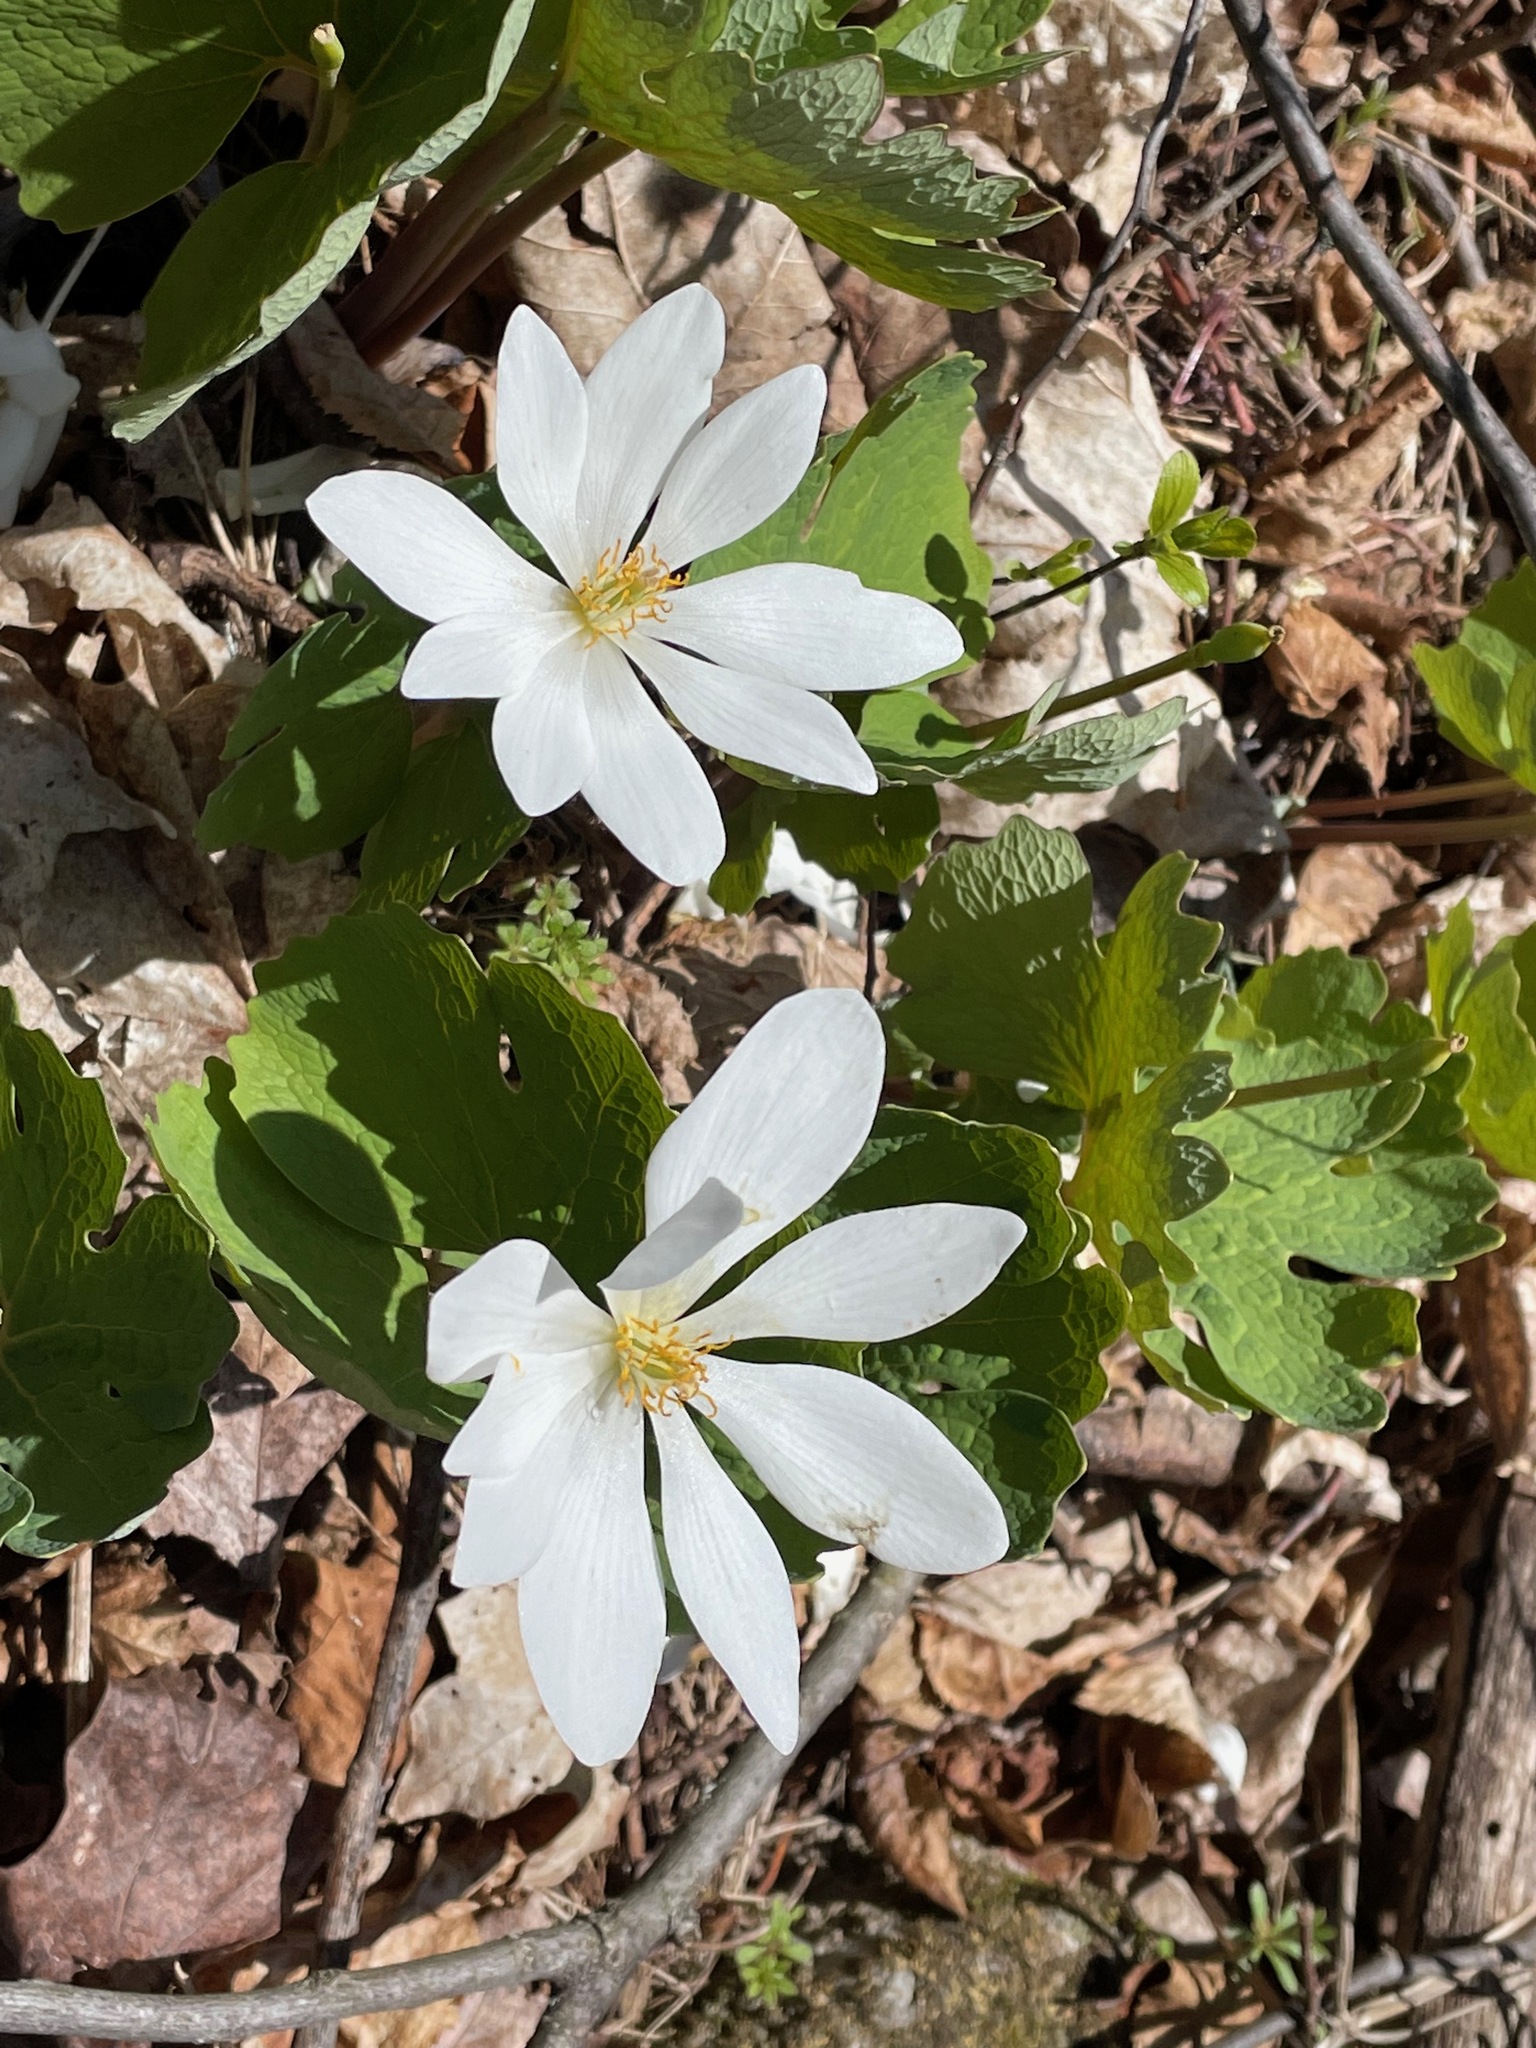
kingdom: Plantae
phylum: Tracheophyta
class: Magnoliopsida
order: Ranunculales
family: Papaveraceae
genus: Sanguinaria
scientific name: Sanguinaria canadensis
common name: Bloodroot
